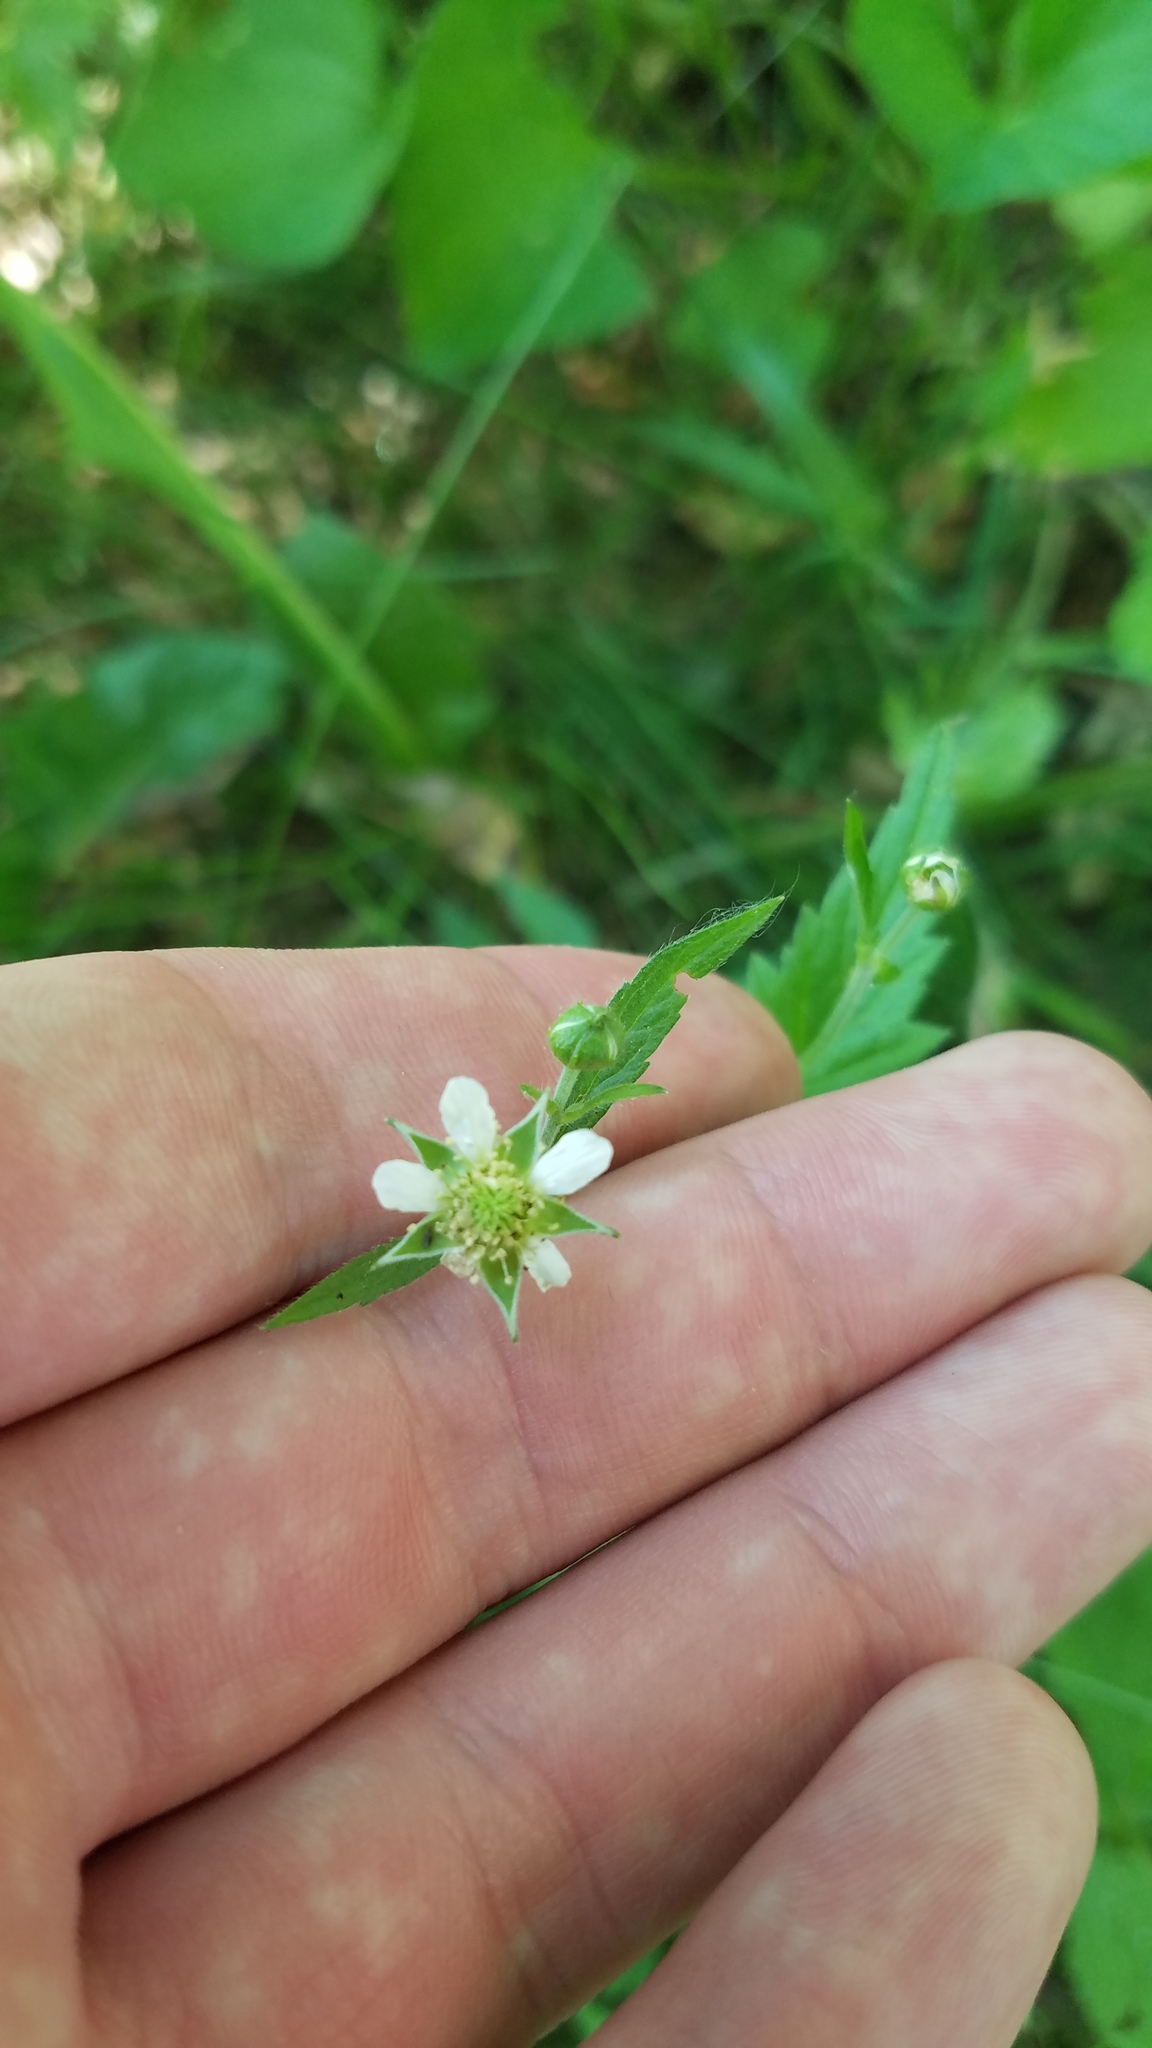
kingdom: Plantae
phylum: Tracheophyta
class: Magnoliopsida
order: Rosales
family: Rosaceae
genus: Geum
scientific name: Geum canadense
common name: White avens
